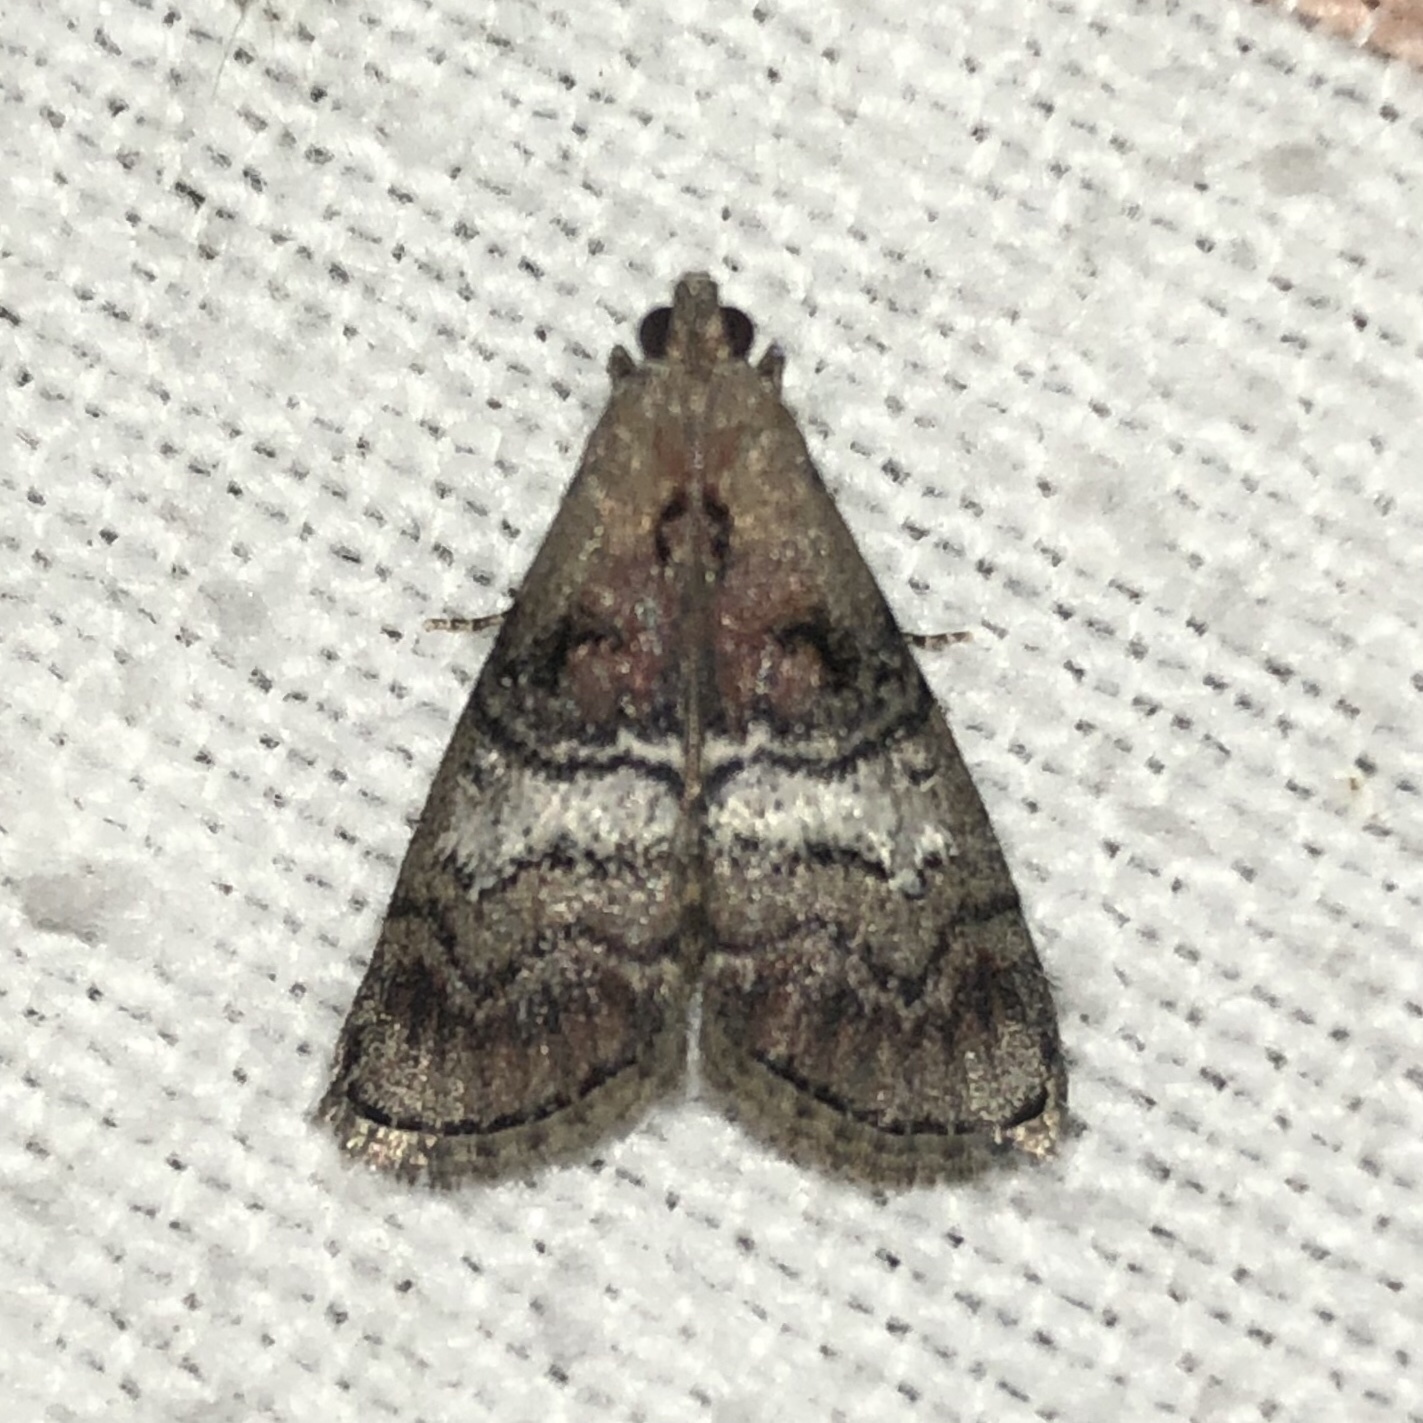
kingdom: Animalia
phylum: Arthropoda
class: Insecta
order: Lepidoptera
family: Pyralidae
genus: Pococera
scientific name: Pococera asperatella
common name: Maple webworm moth
